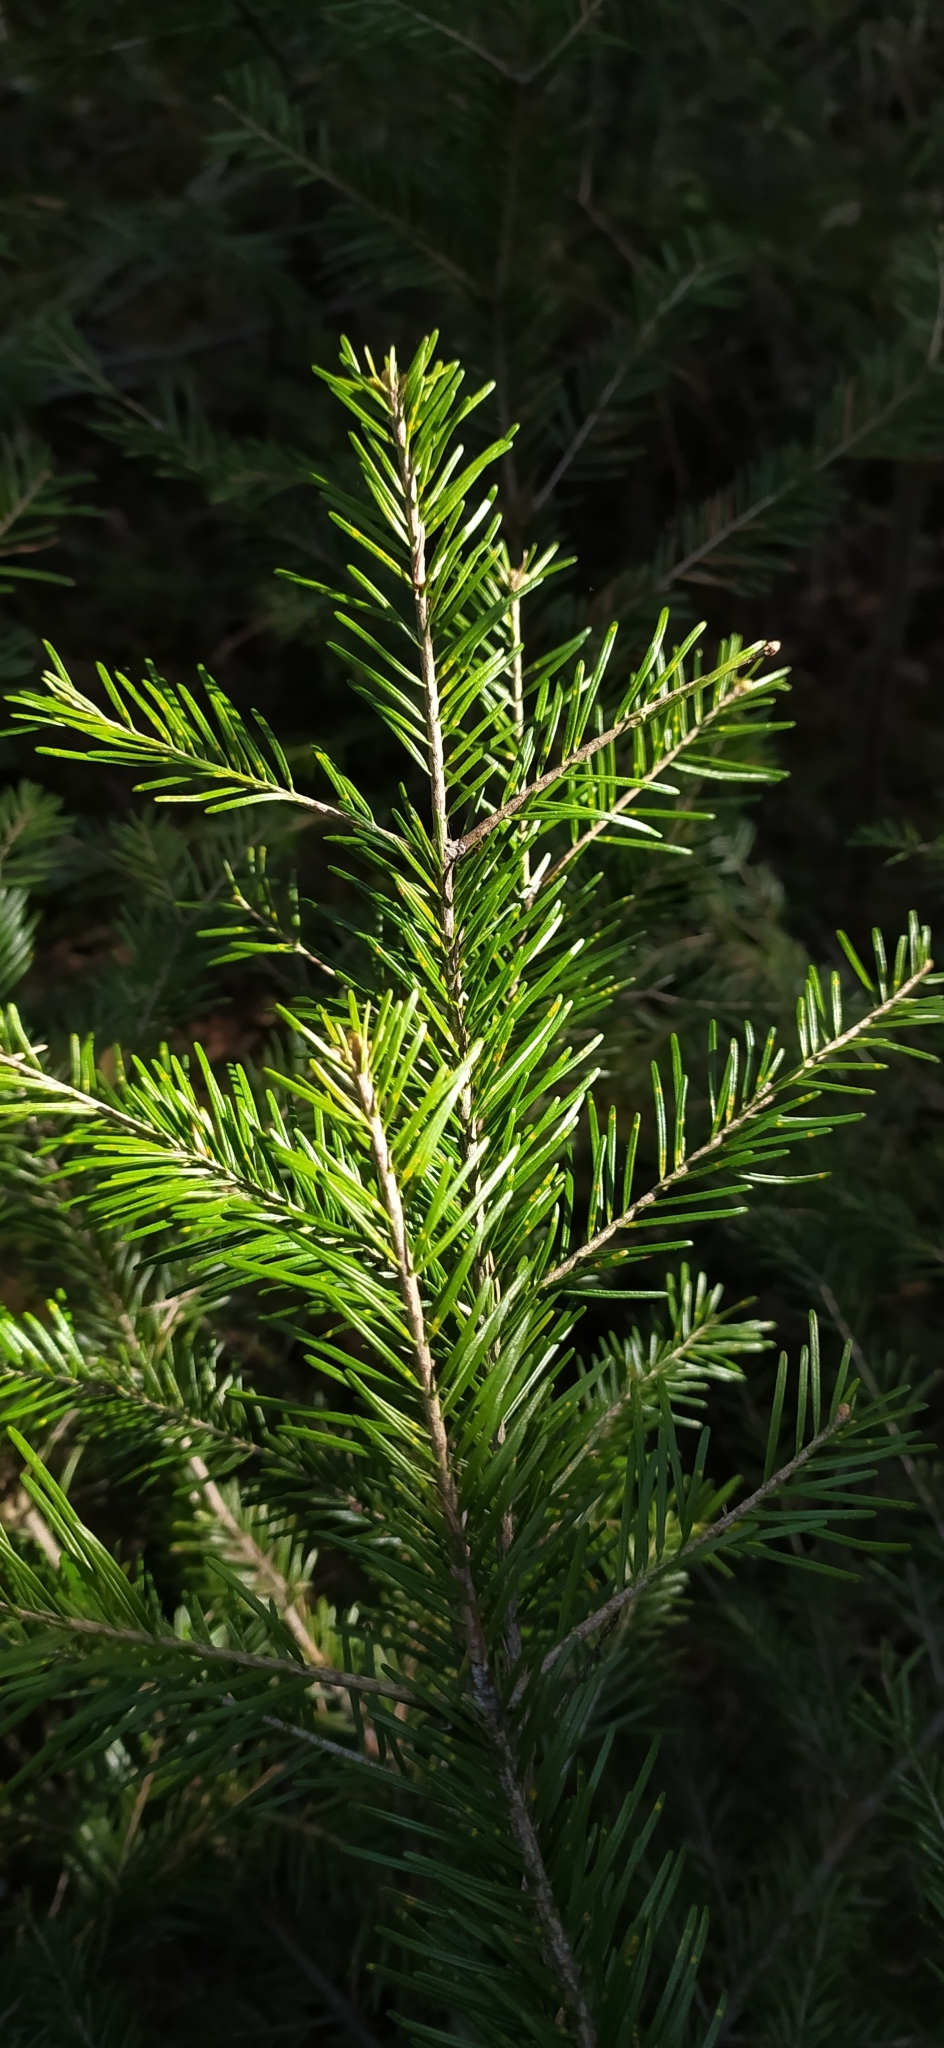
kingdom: Plantae
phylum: Tracheophyta
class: Pinopsida
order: Pinales
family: Pinaceae
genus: Abies
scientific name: Abies sibirica
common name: Siberian fir
